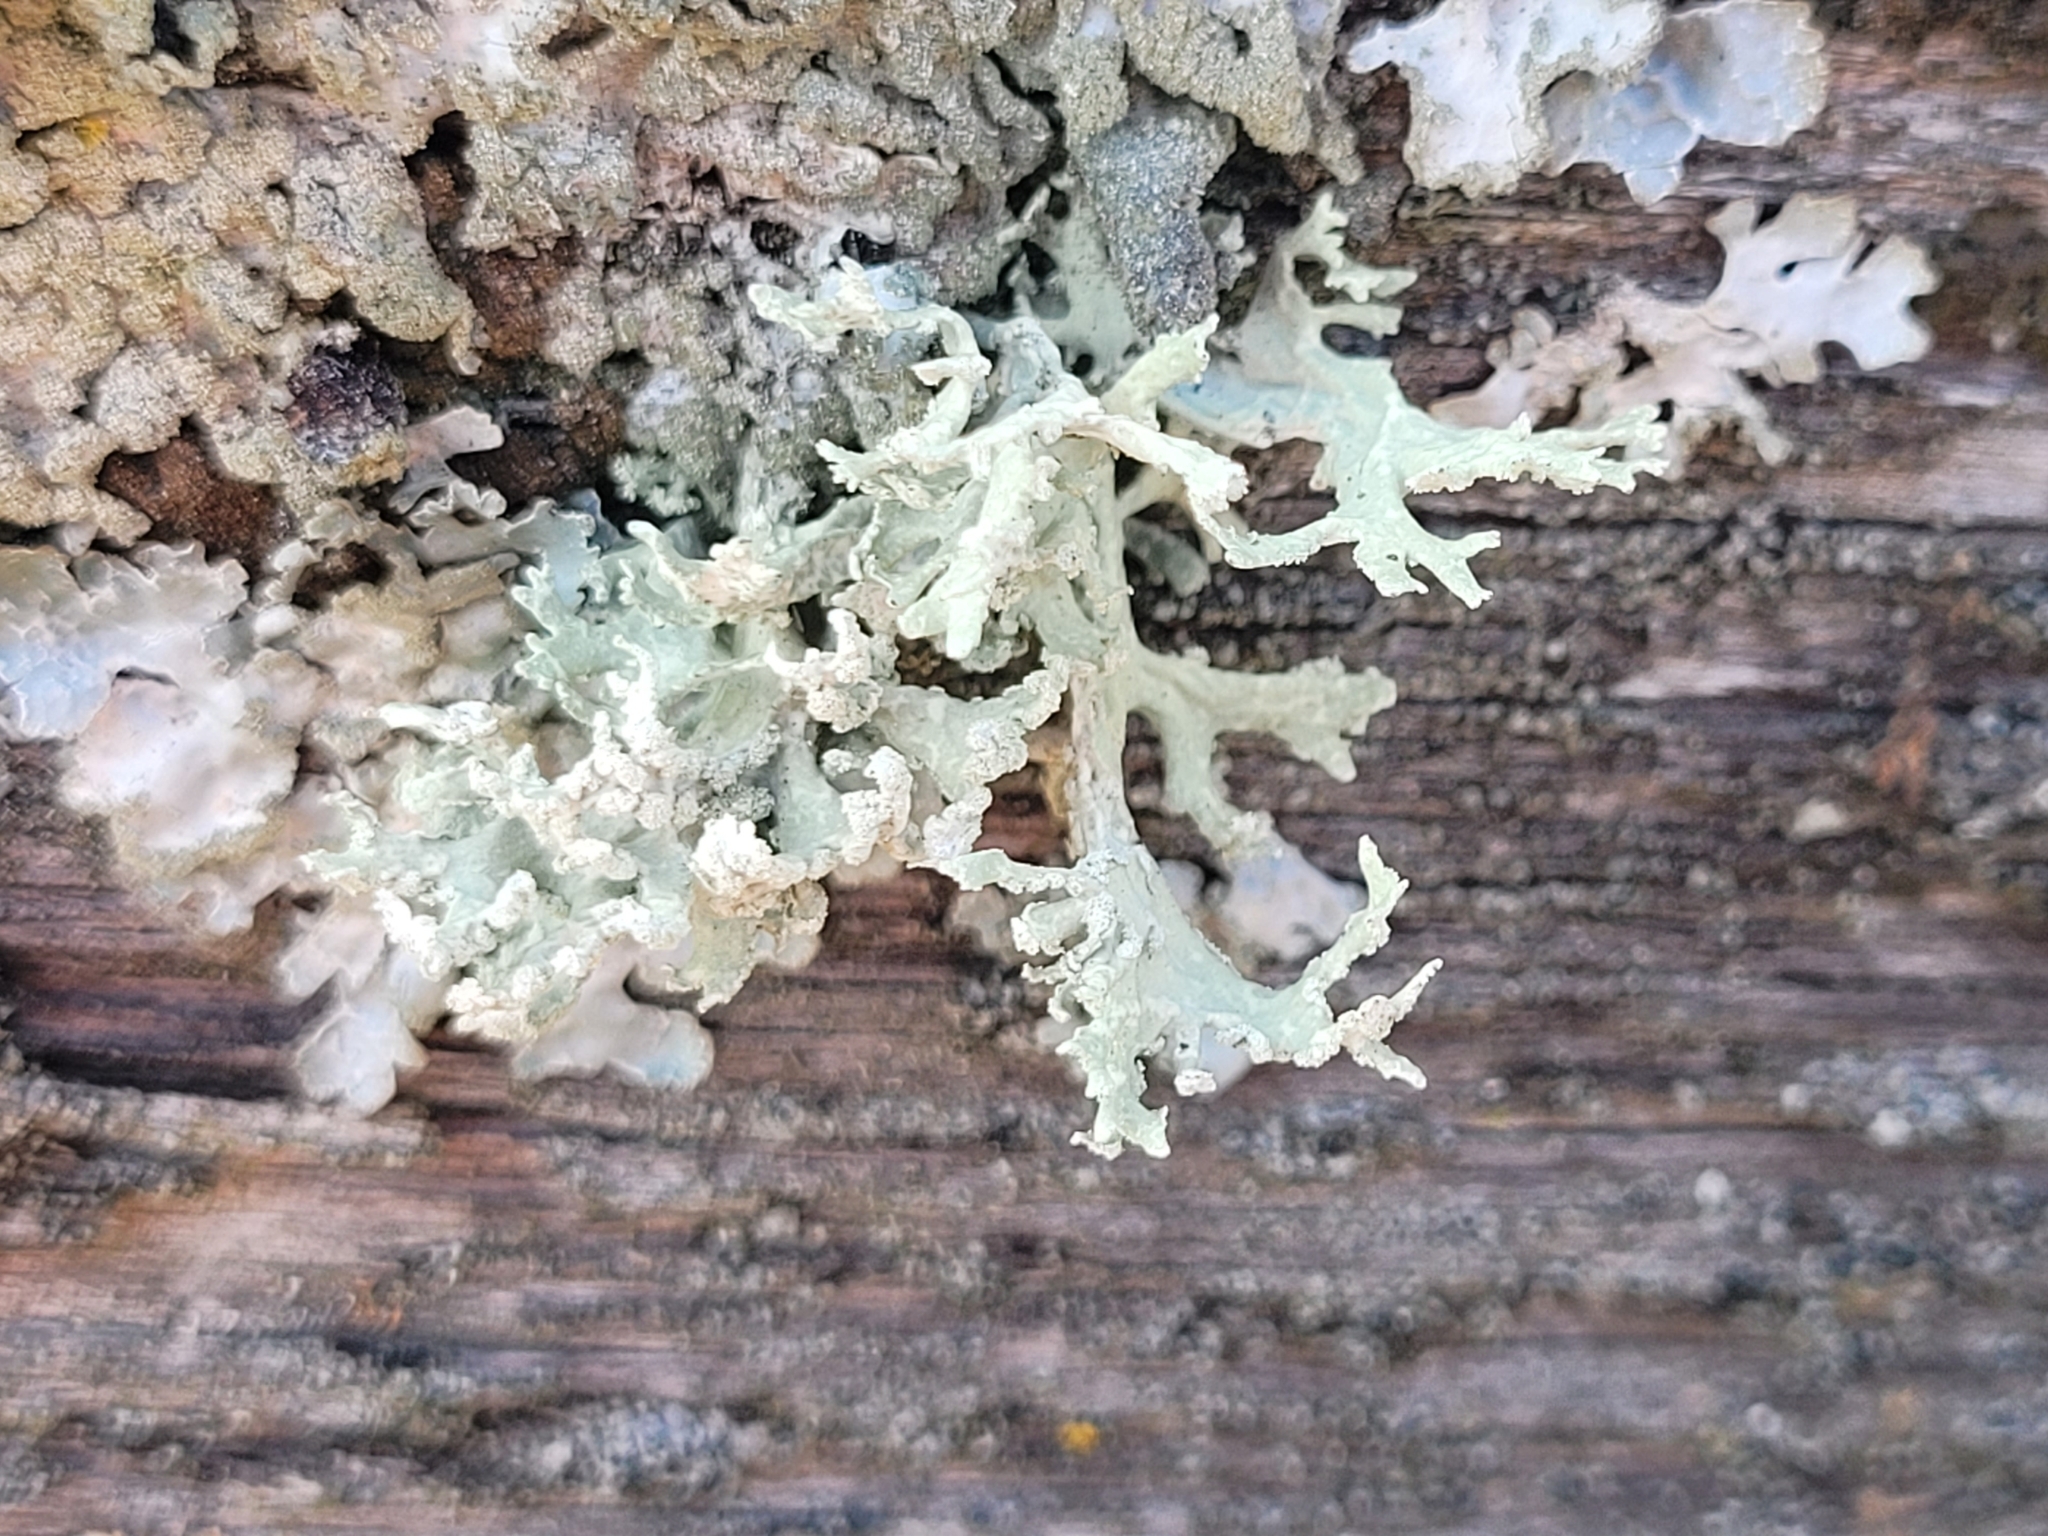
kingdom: Fungi
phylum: Ascomycota
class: Lecanoromycetes
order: Lecanorales
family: Parmeliaceae
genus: Evernia
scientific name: Evernia prunastri
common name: Oak moss
